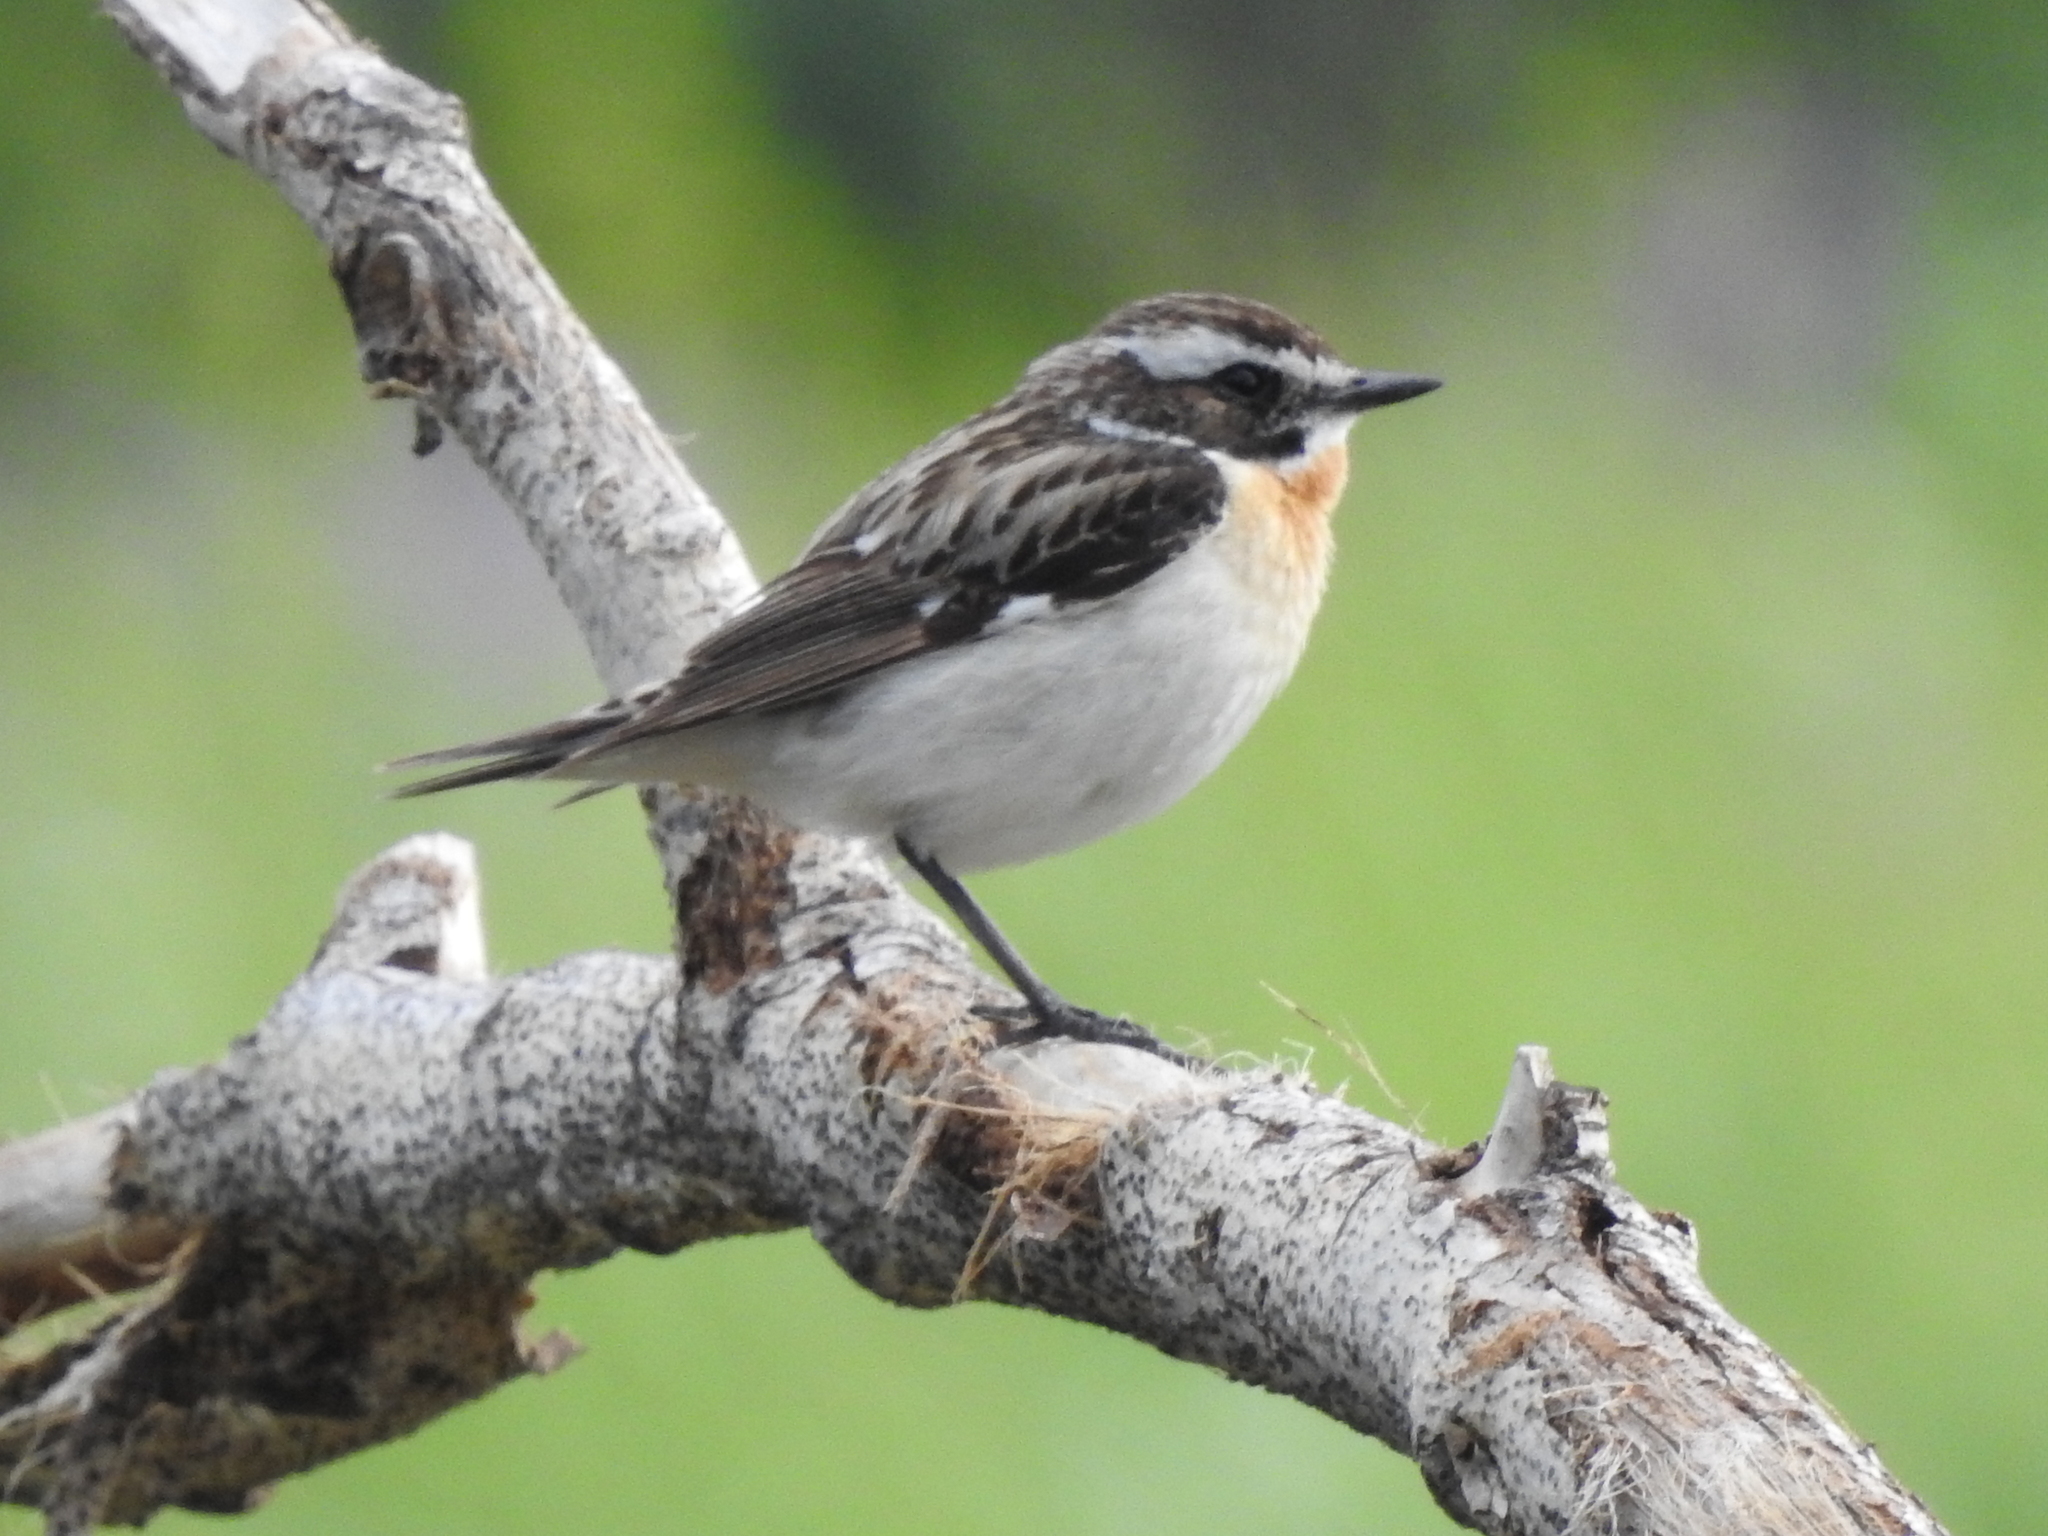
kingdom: Animalia
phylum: Chordata
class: Aves
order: Passeriformes
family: Muscicapidae
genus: Saxicola
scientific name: Saxicola rubetra
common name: Whinchat
